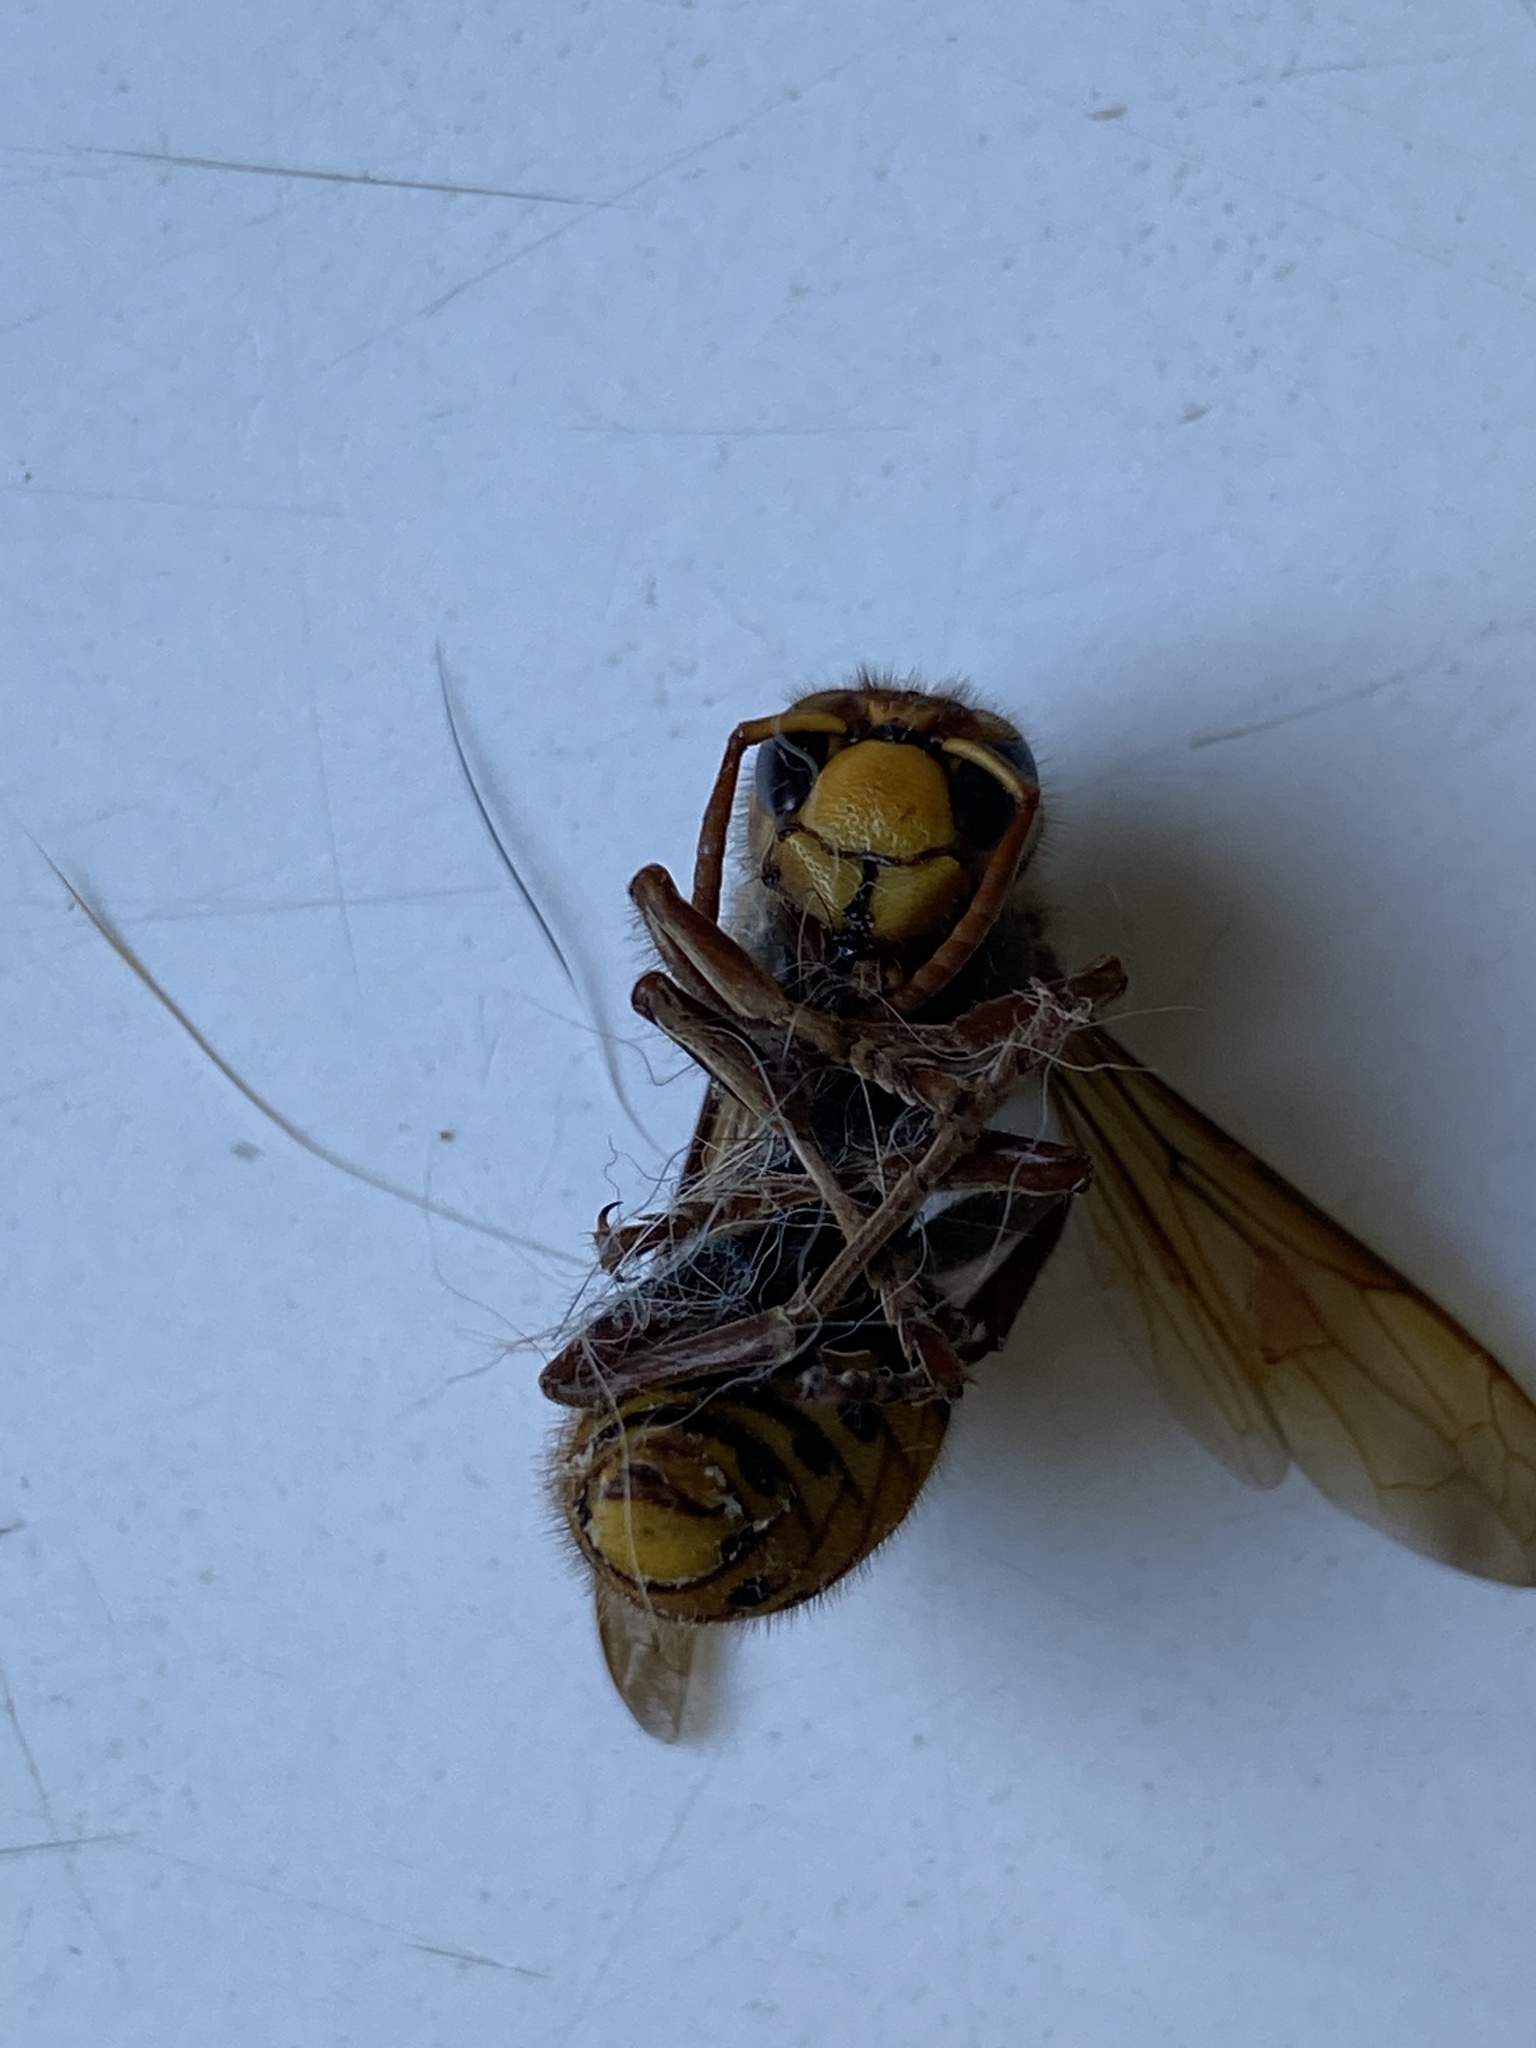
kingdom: Animalia
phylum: Arthropoda
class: Insecta
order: Hymenoptera
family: Vespidae
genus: Vespa
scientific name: Vespa crabro
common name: Hornet
